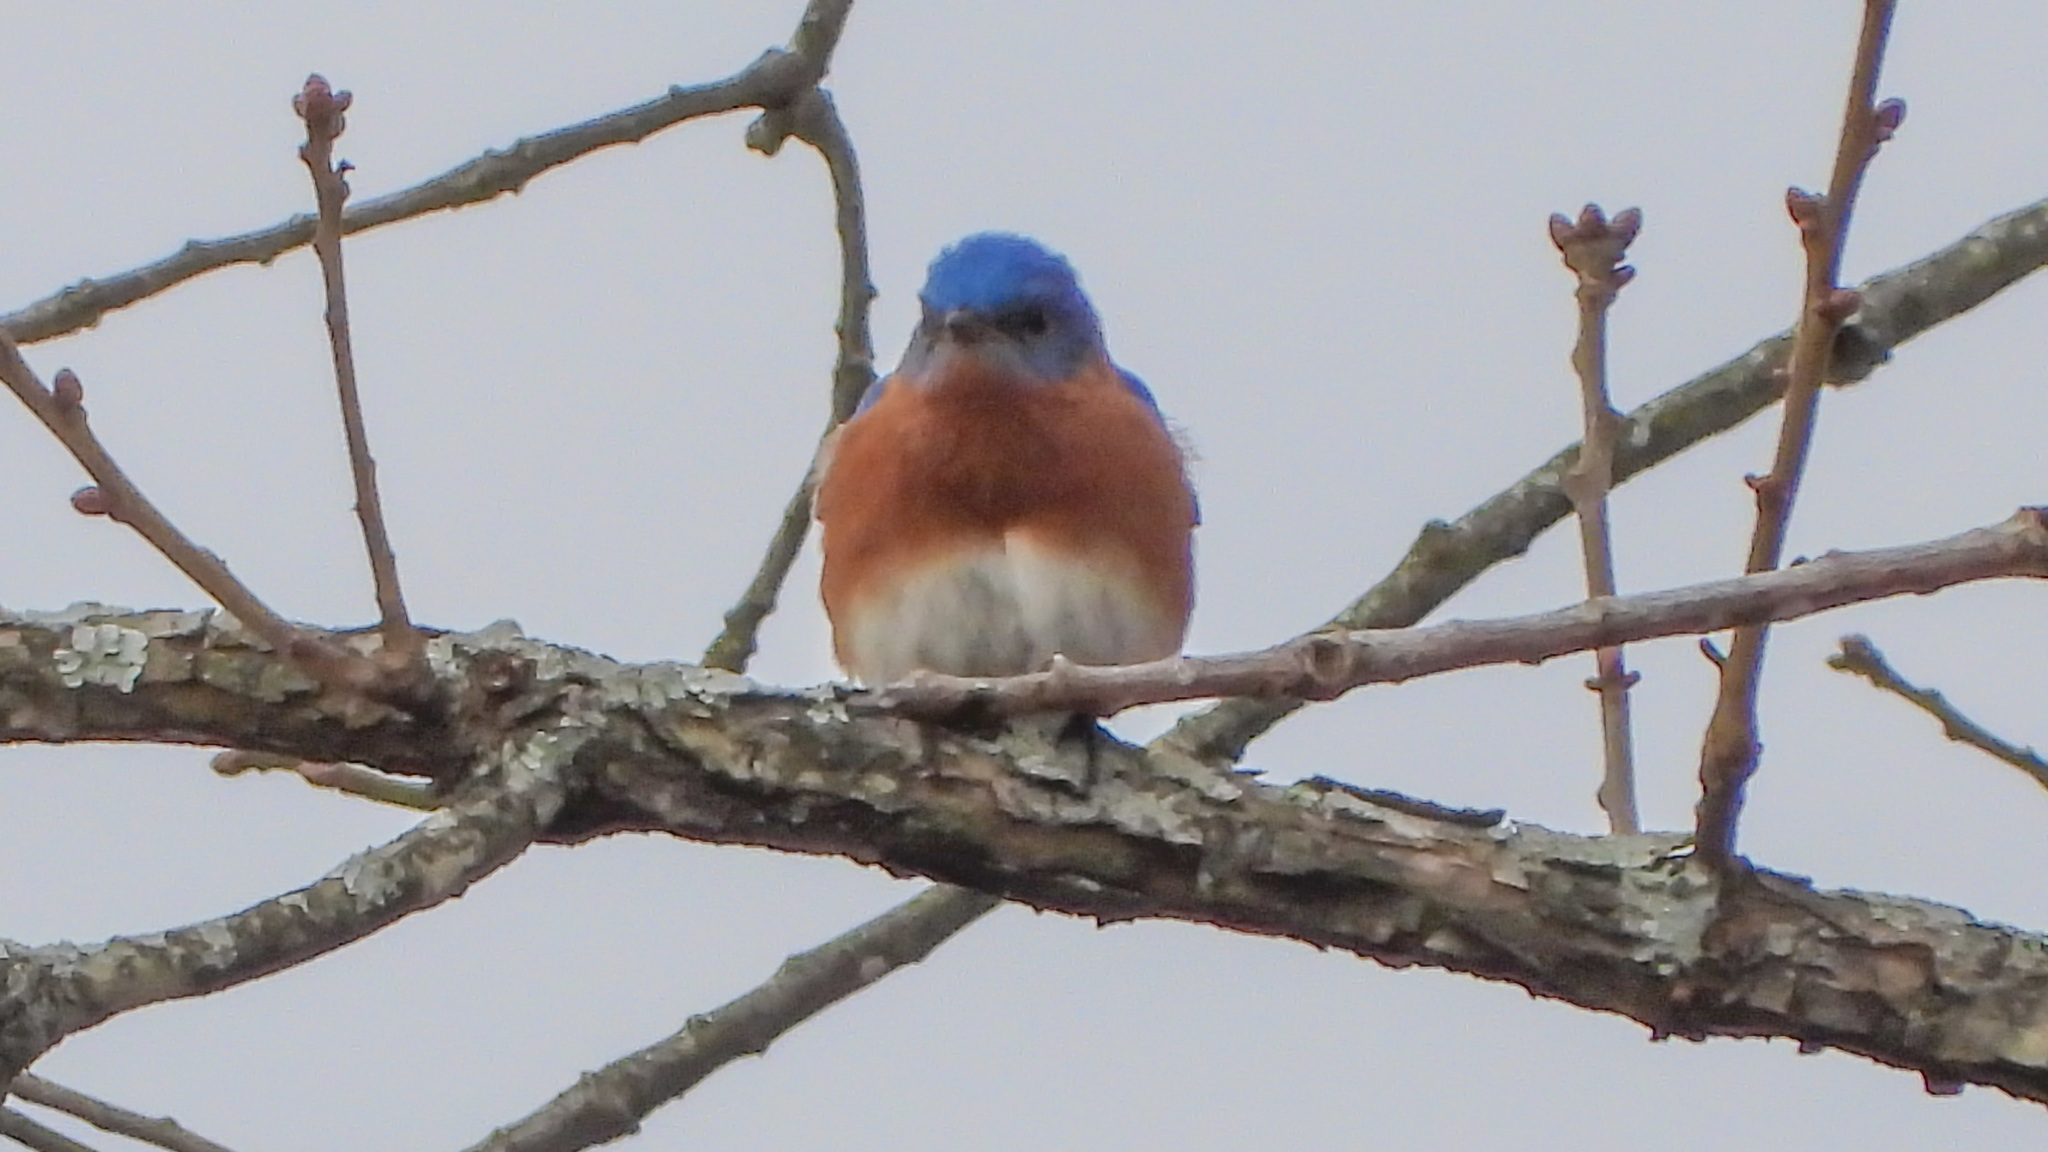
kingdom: Animalia
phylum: Chordata
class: Aves
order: Passeriformes
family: Turdidae
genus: Sialia
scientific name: Sialia sialis
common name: Eastern bluebird
